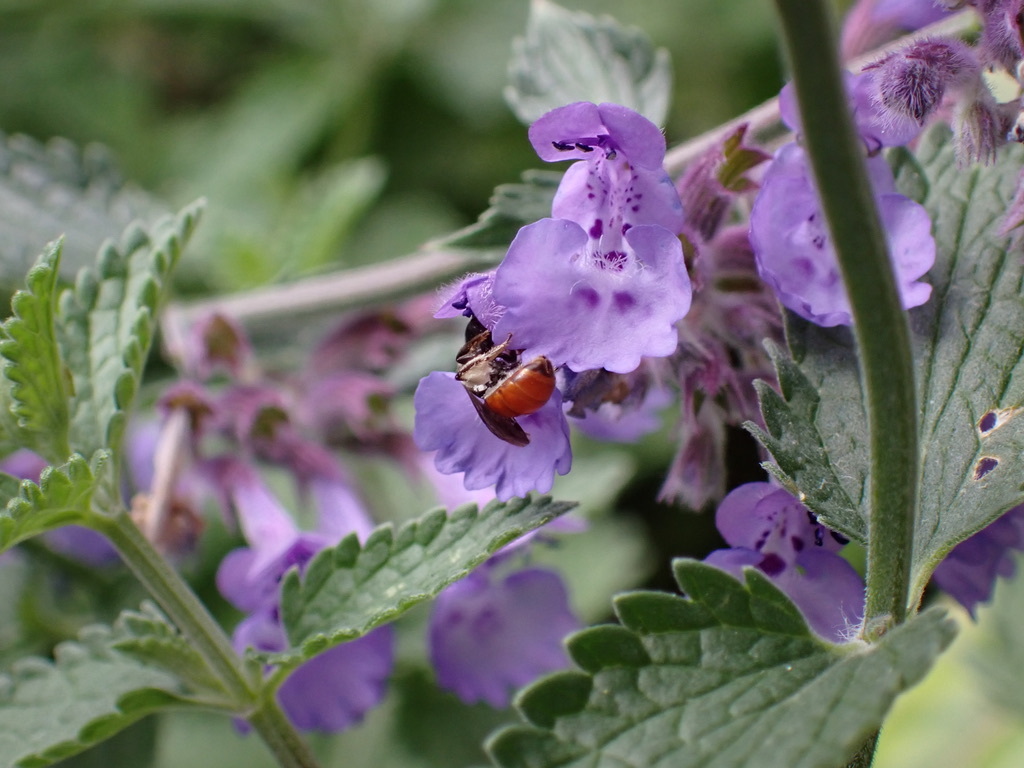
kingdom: Animalia
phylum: Arthropoda
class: Insecta
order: Hymenoptera
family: Halictidae
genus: Lasioglossum
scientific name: Lasioglossum ovaliceps
